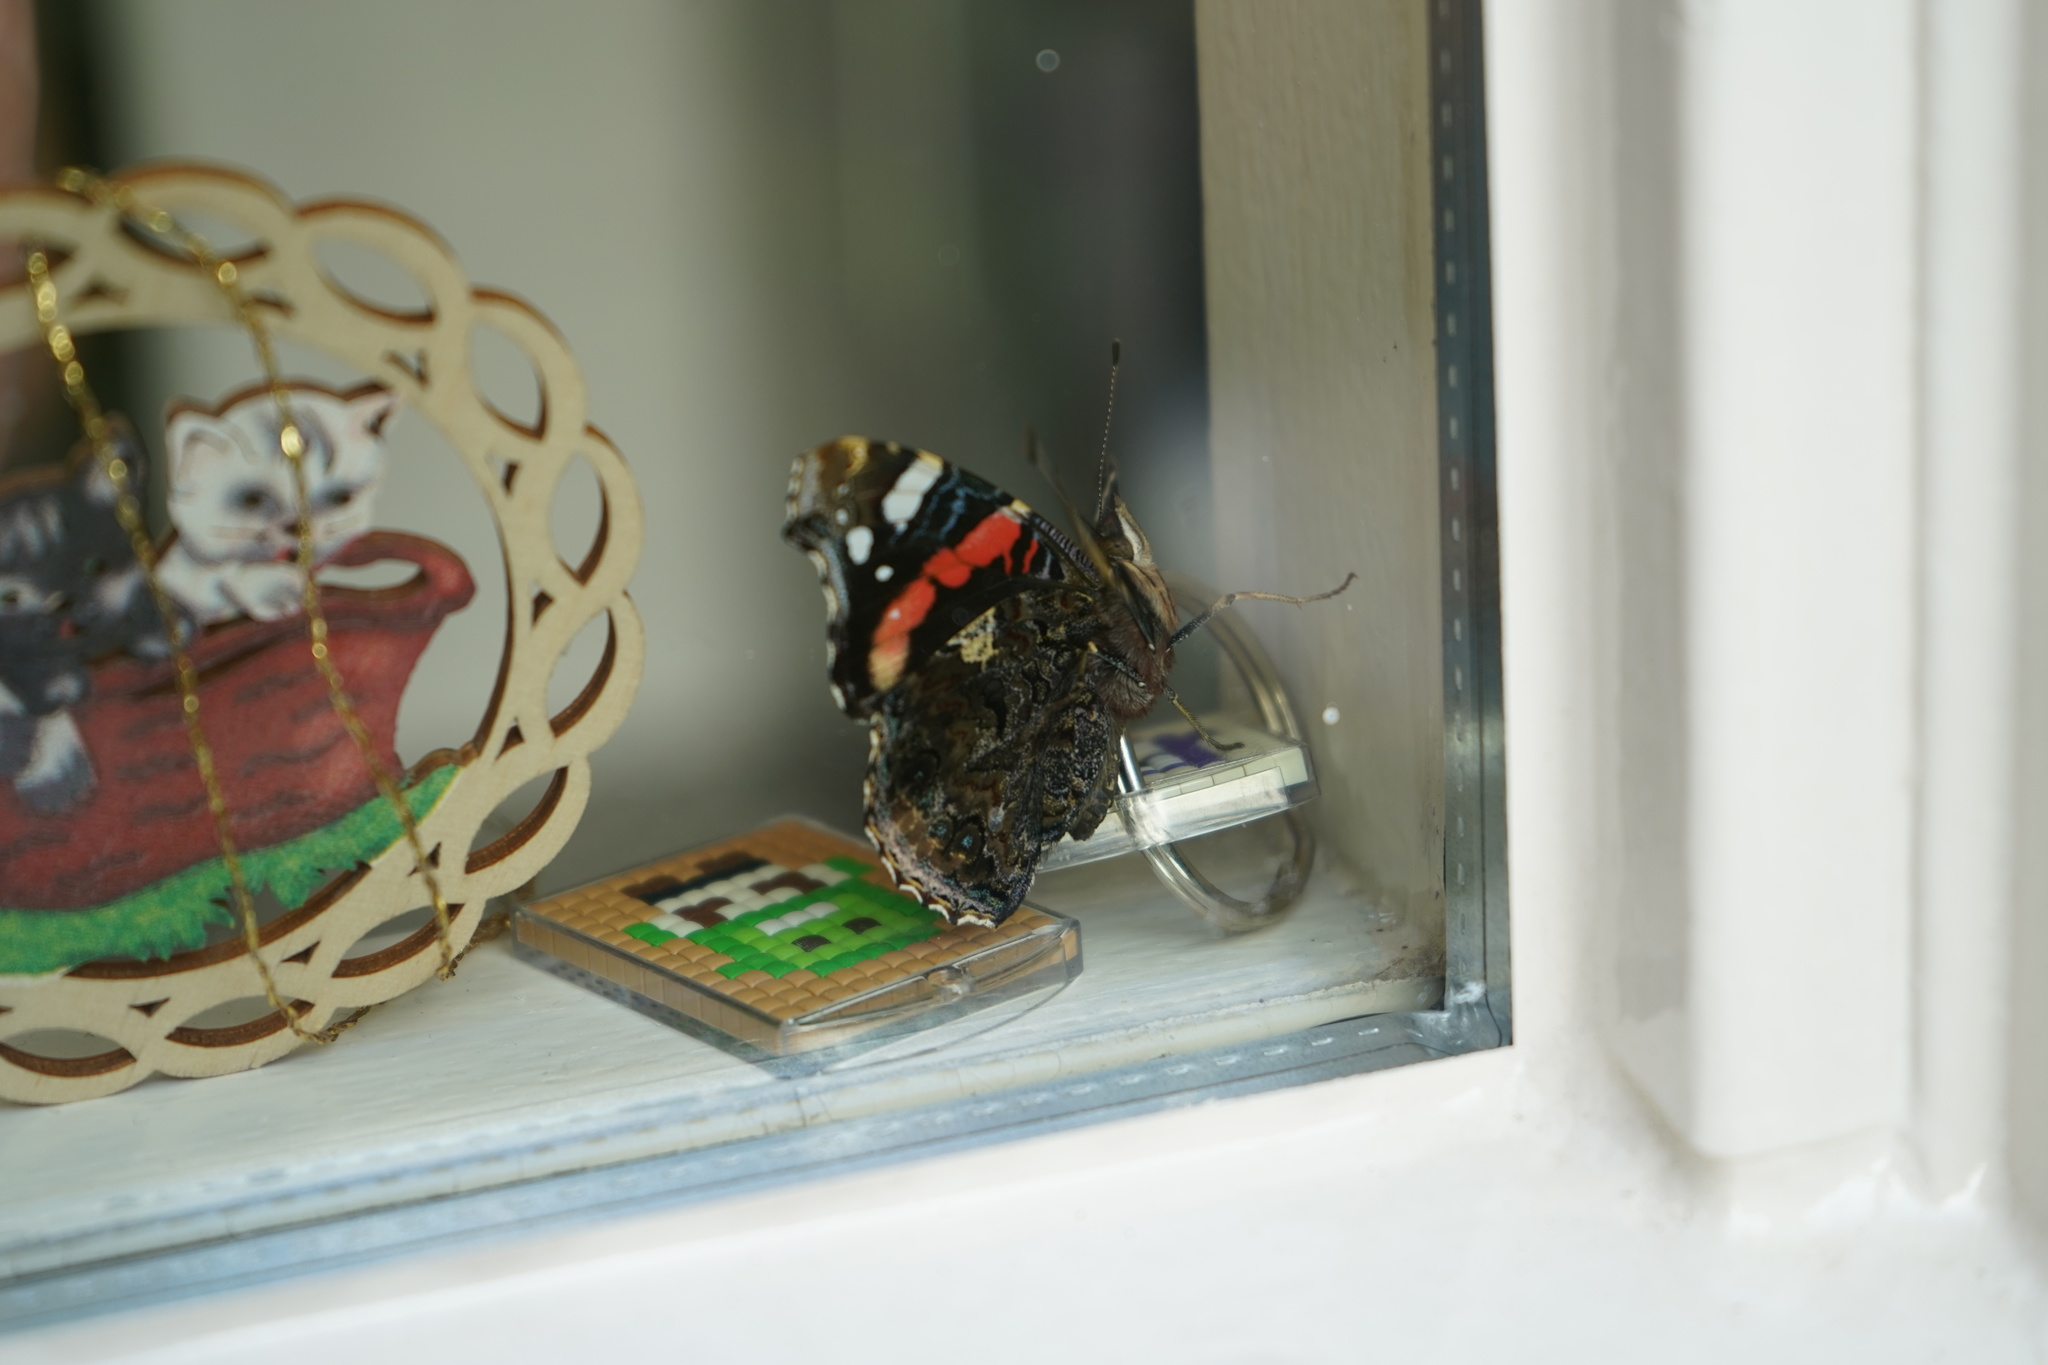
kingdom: Animalia
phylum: Arthropoda
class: Insecta
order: Lepidoptera
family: Nymphalidae
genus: Vanessa
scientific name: Vanessa atalanta
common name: Red admiral
